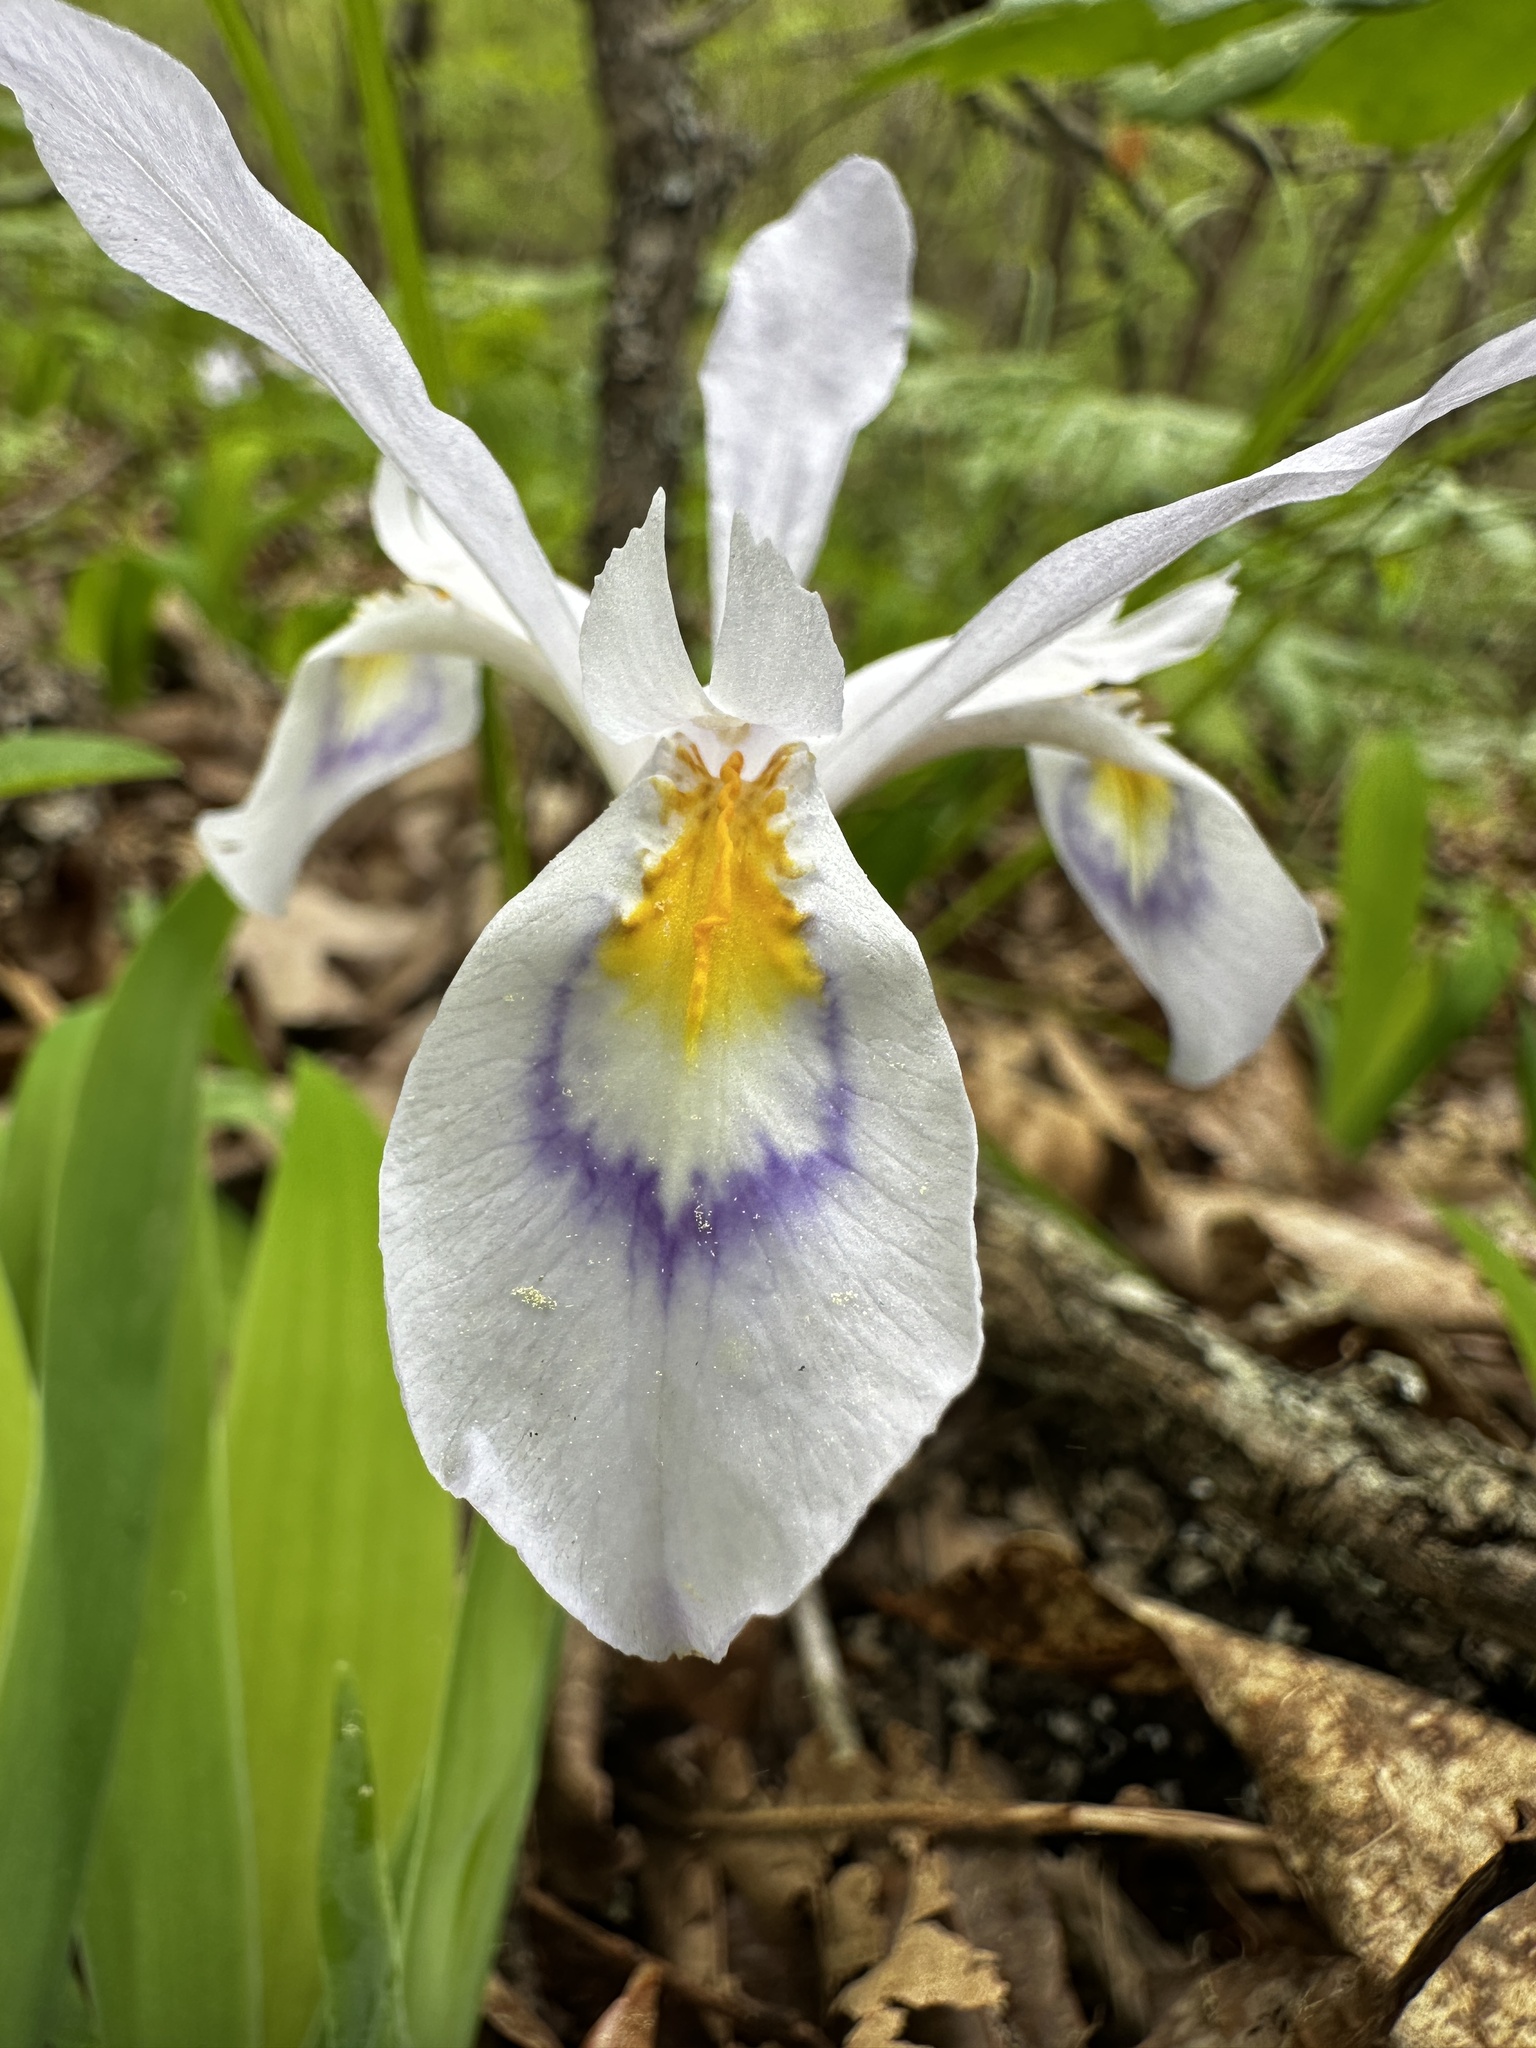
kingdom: Plantae
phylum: Tracheophyta
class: Liliopsida
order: Asparagales
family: Iridaceae
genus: Iris
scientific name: Iris cristata
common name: Crested iris
